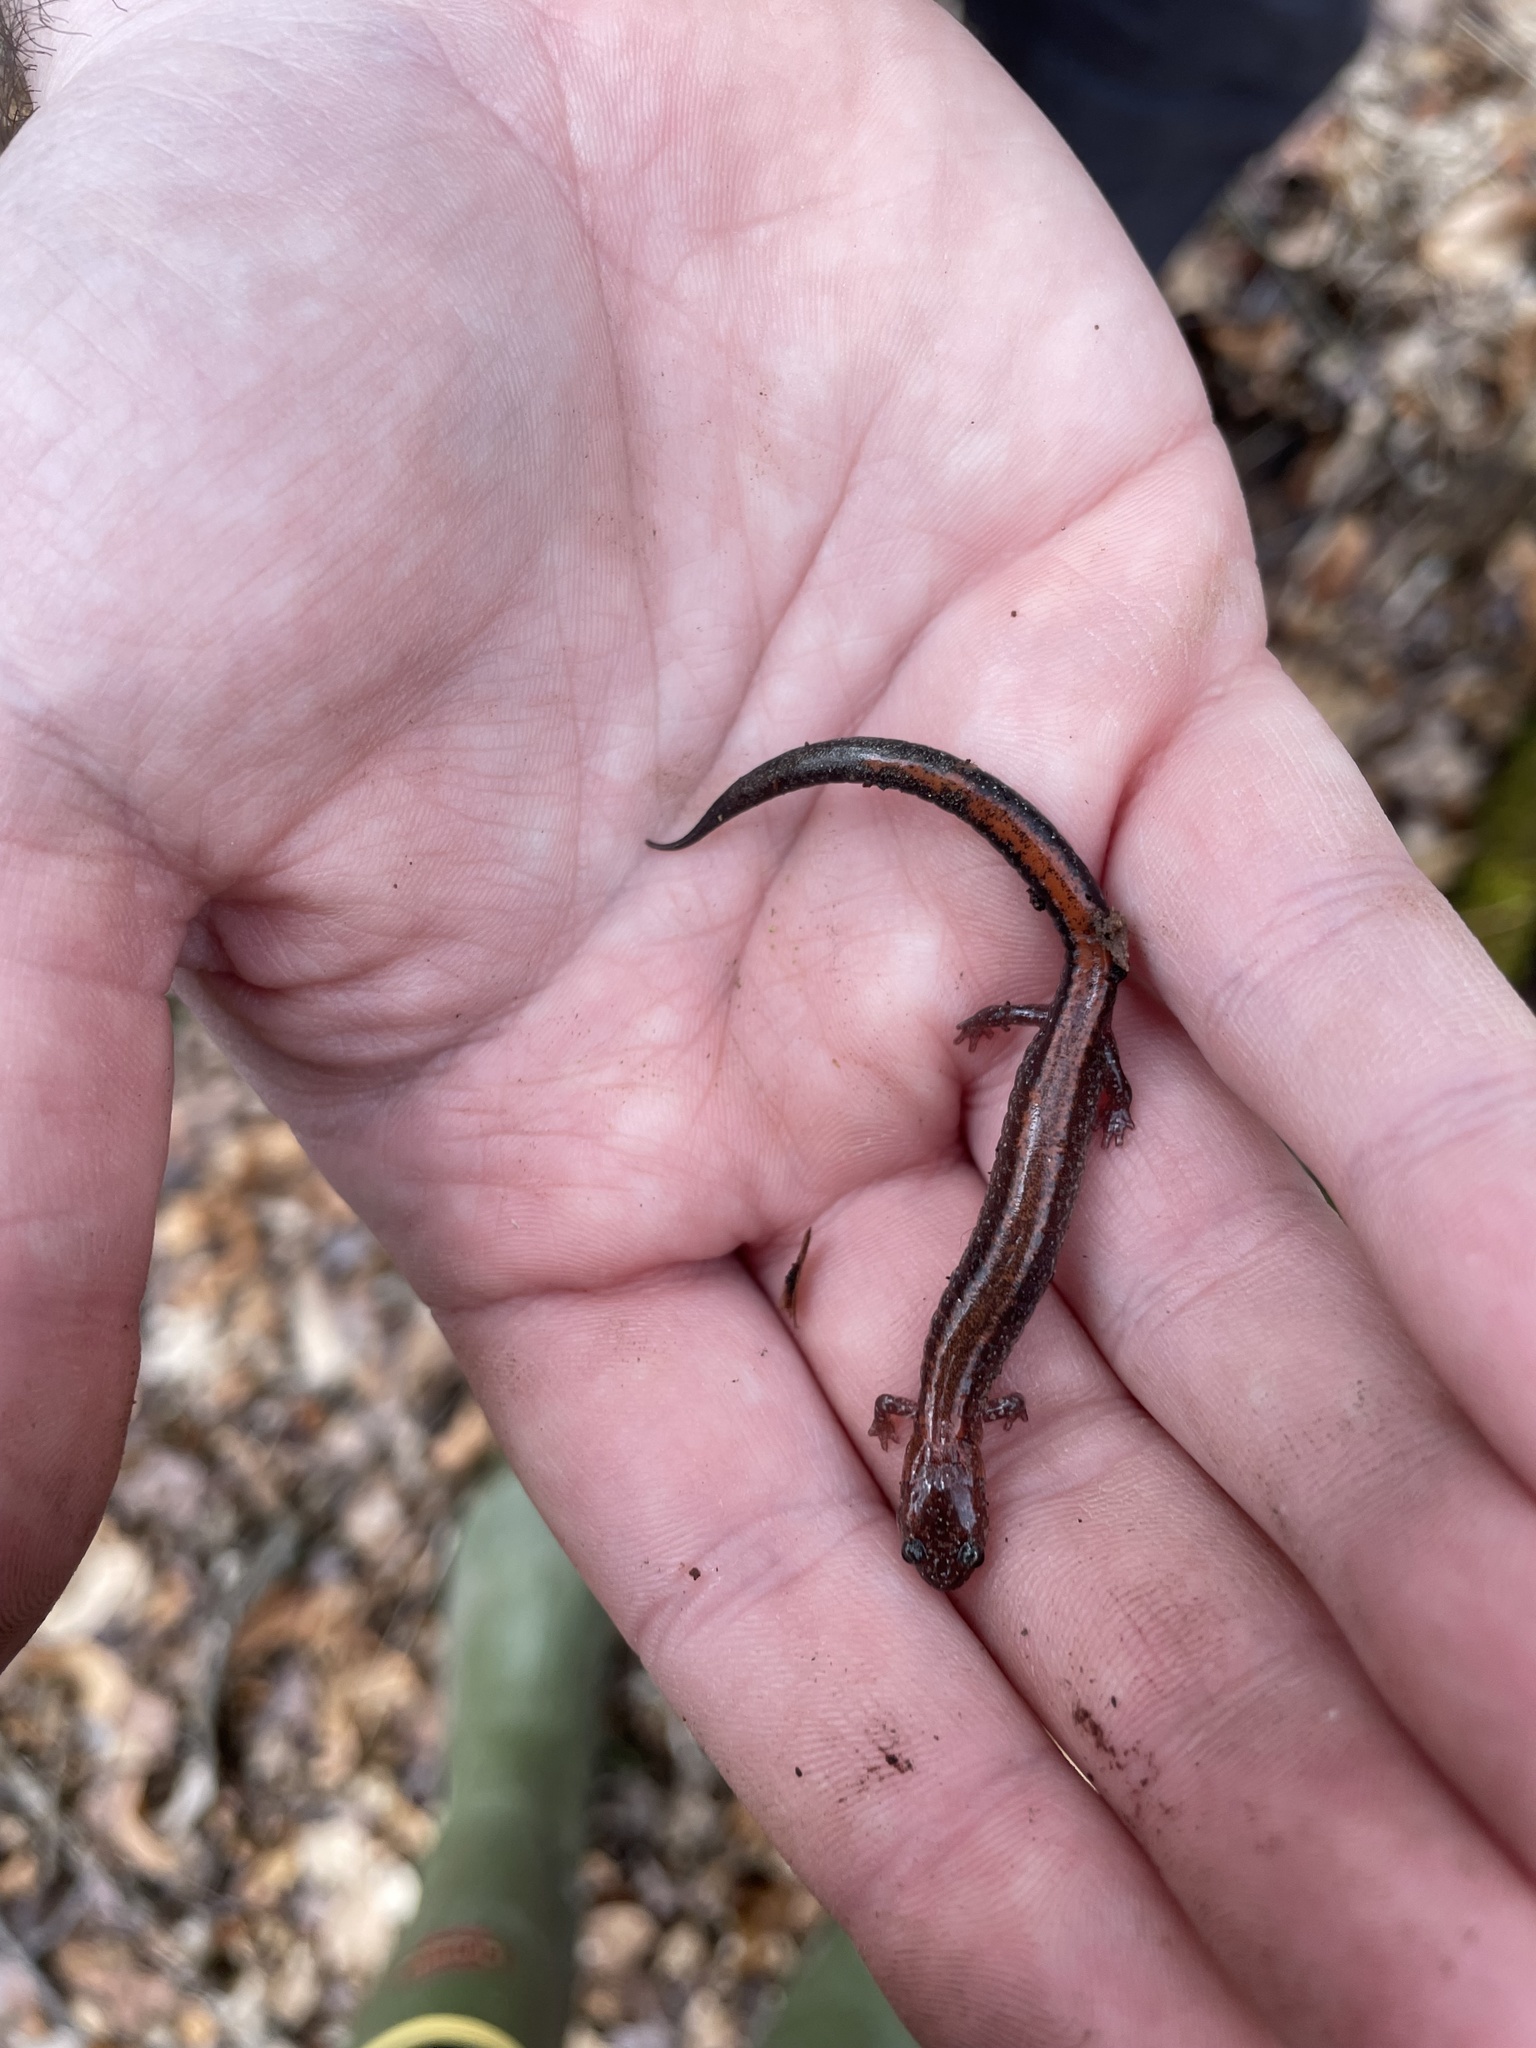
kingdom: Animalia
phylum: Chordata
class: Amphibia
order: Caudata
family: Plethodontidae
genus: Plethodon
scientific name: Plethodon cinereus
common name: Redback salamander
